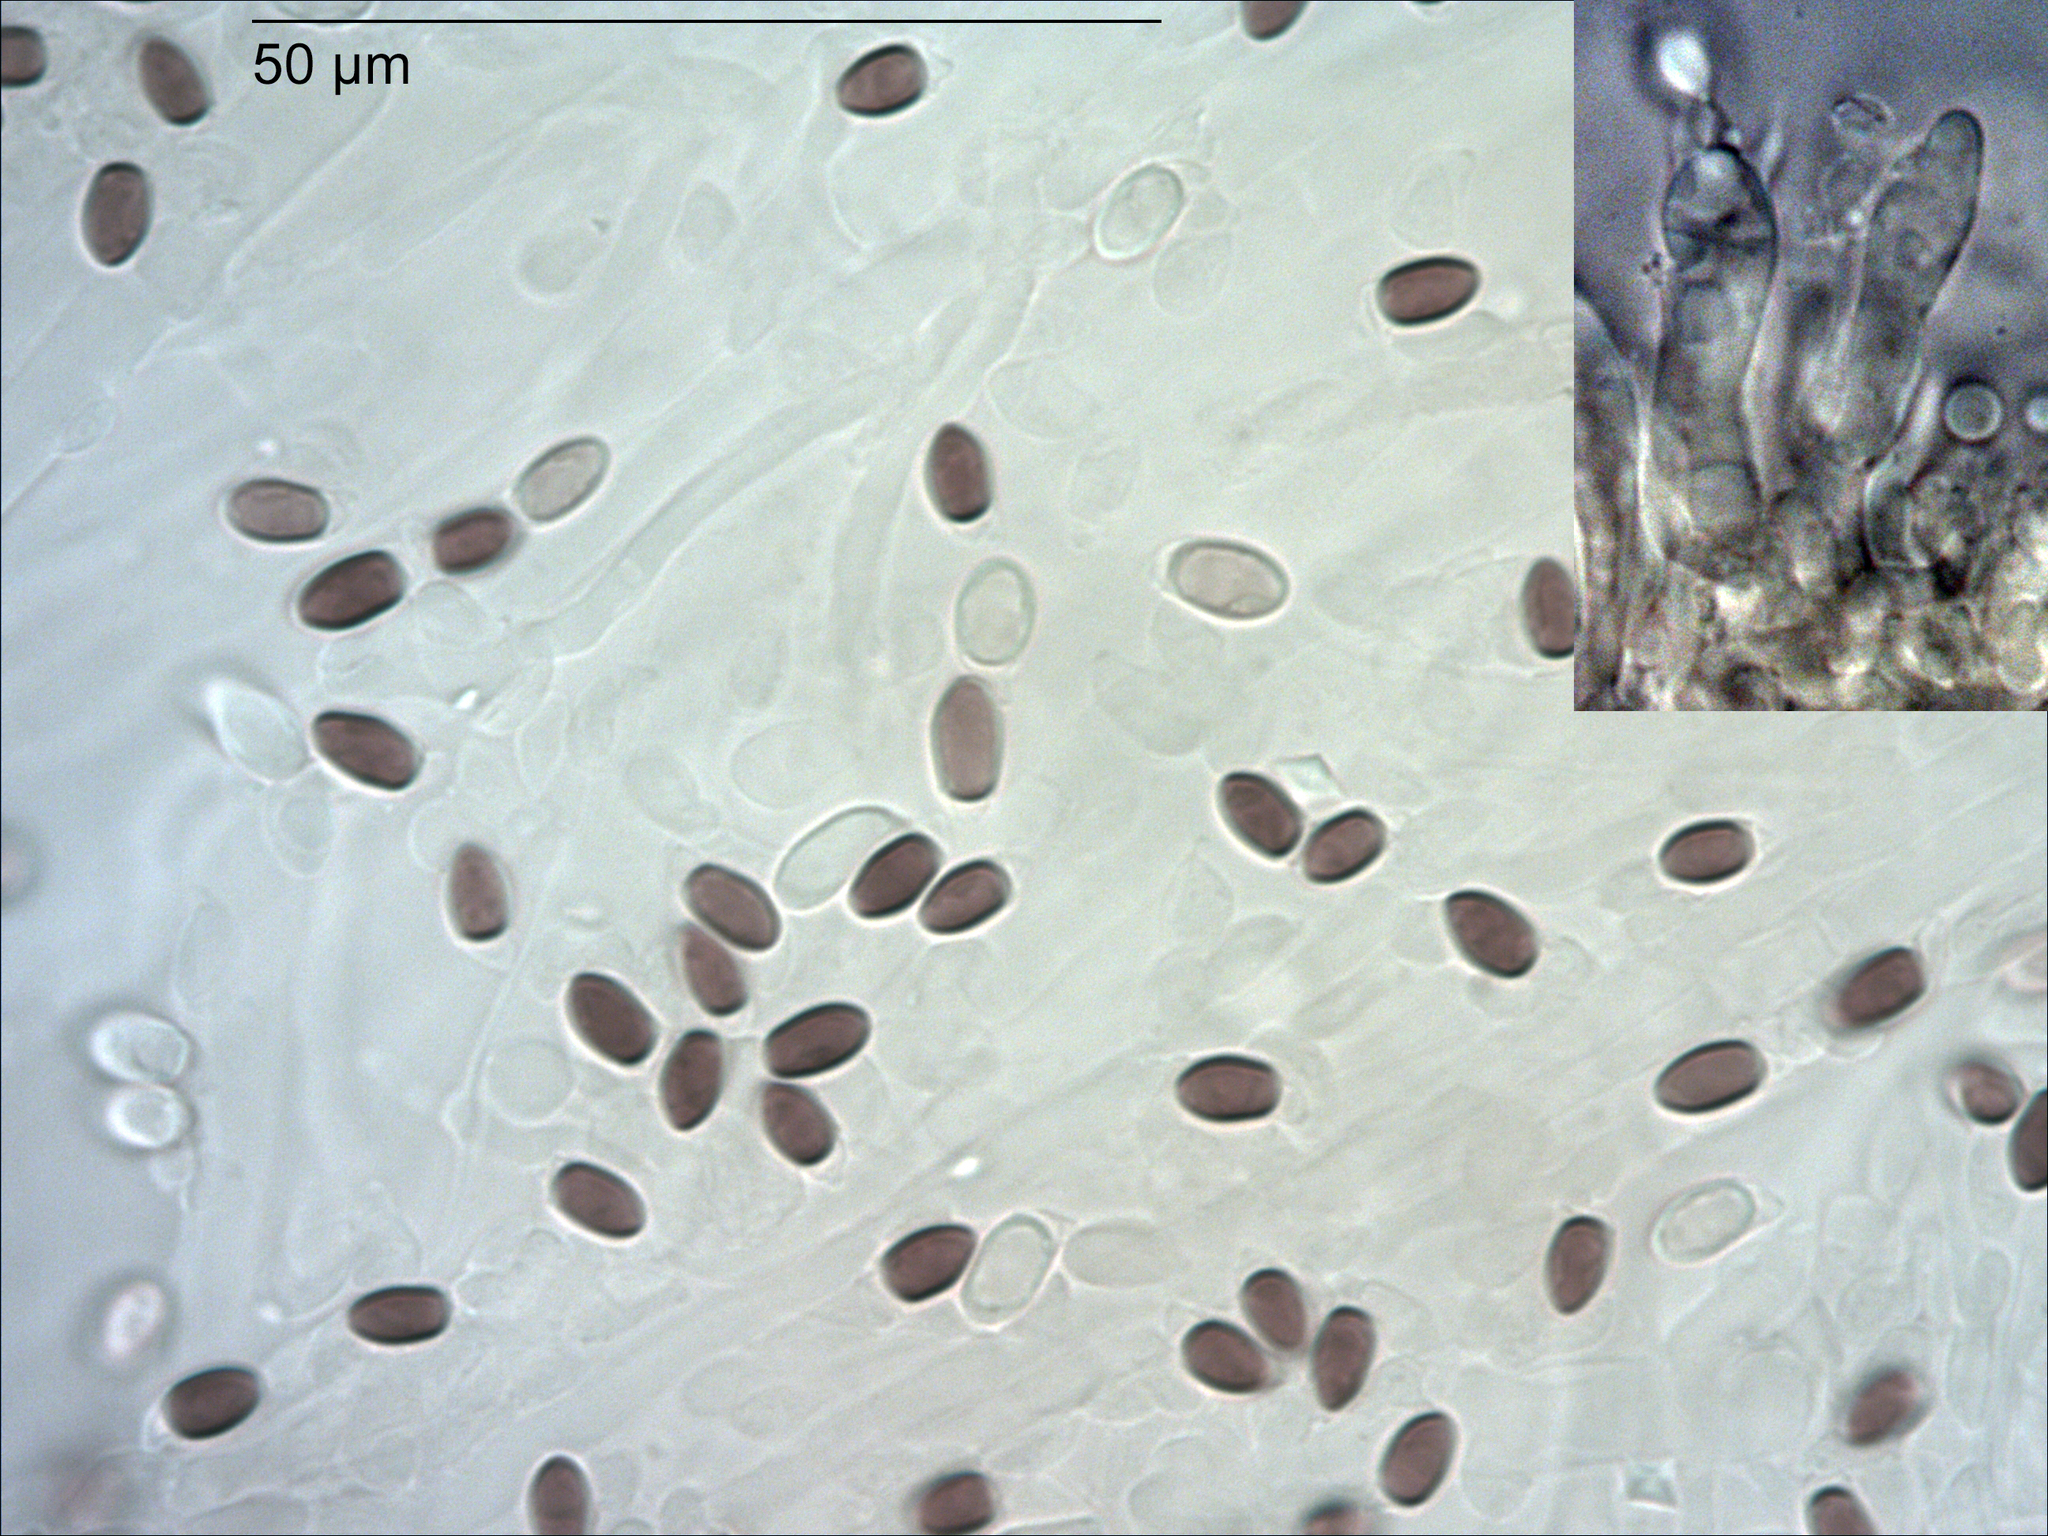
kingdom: Fungi
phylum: Basidiomycota
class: Agaricomycetes
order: Agaricales
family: Omphalotaceae
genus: Rhodocollybia
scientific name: Rhodocollybia incarnata
